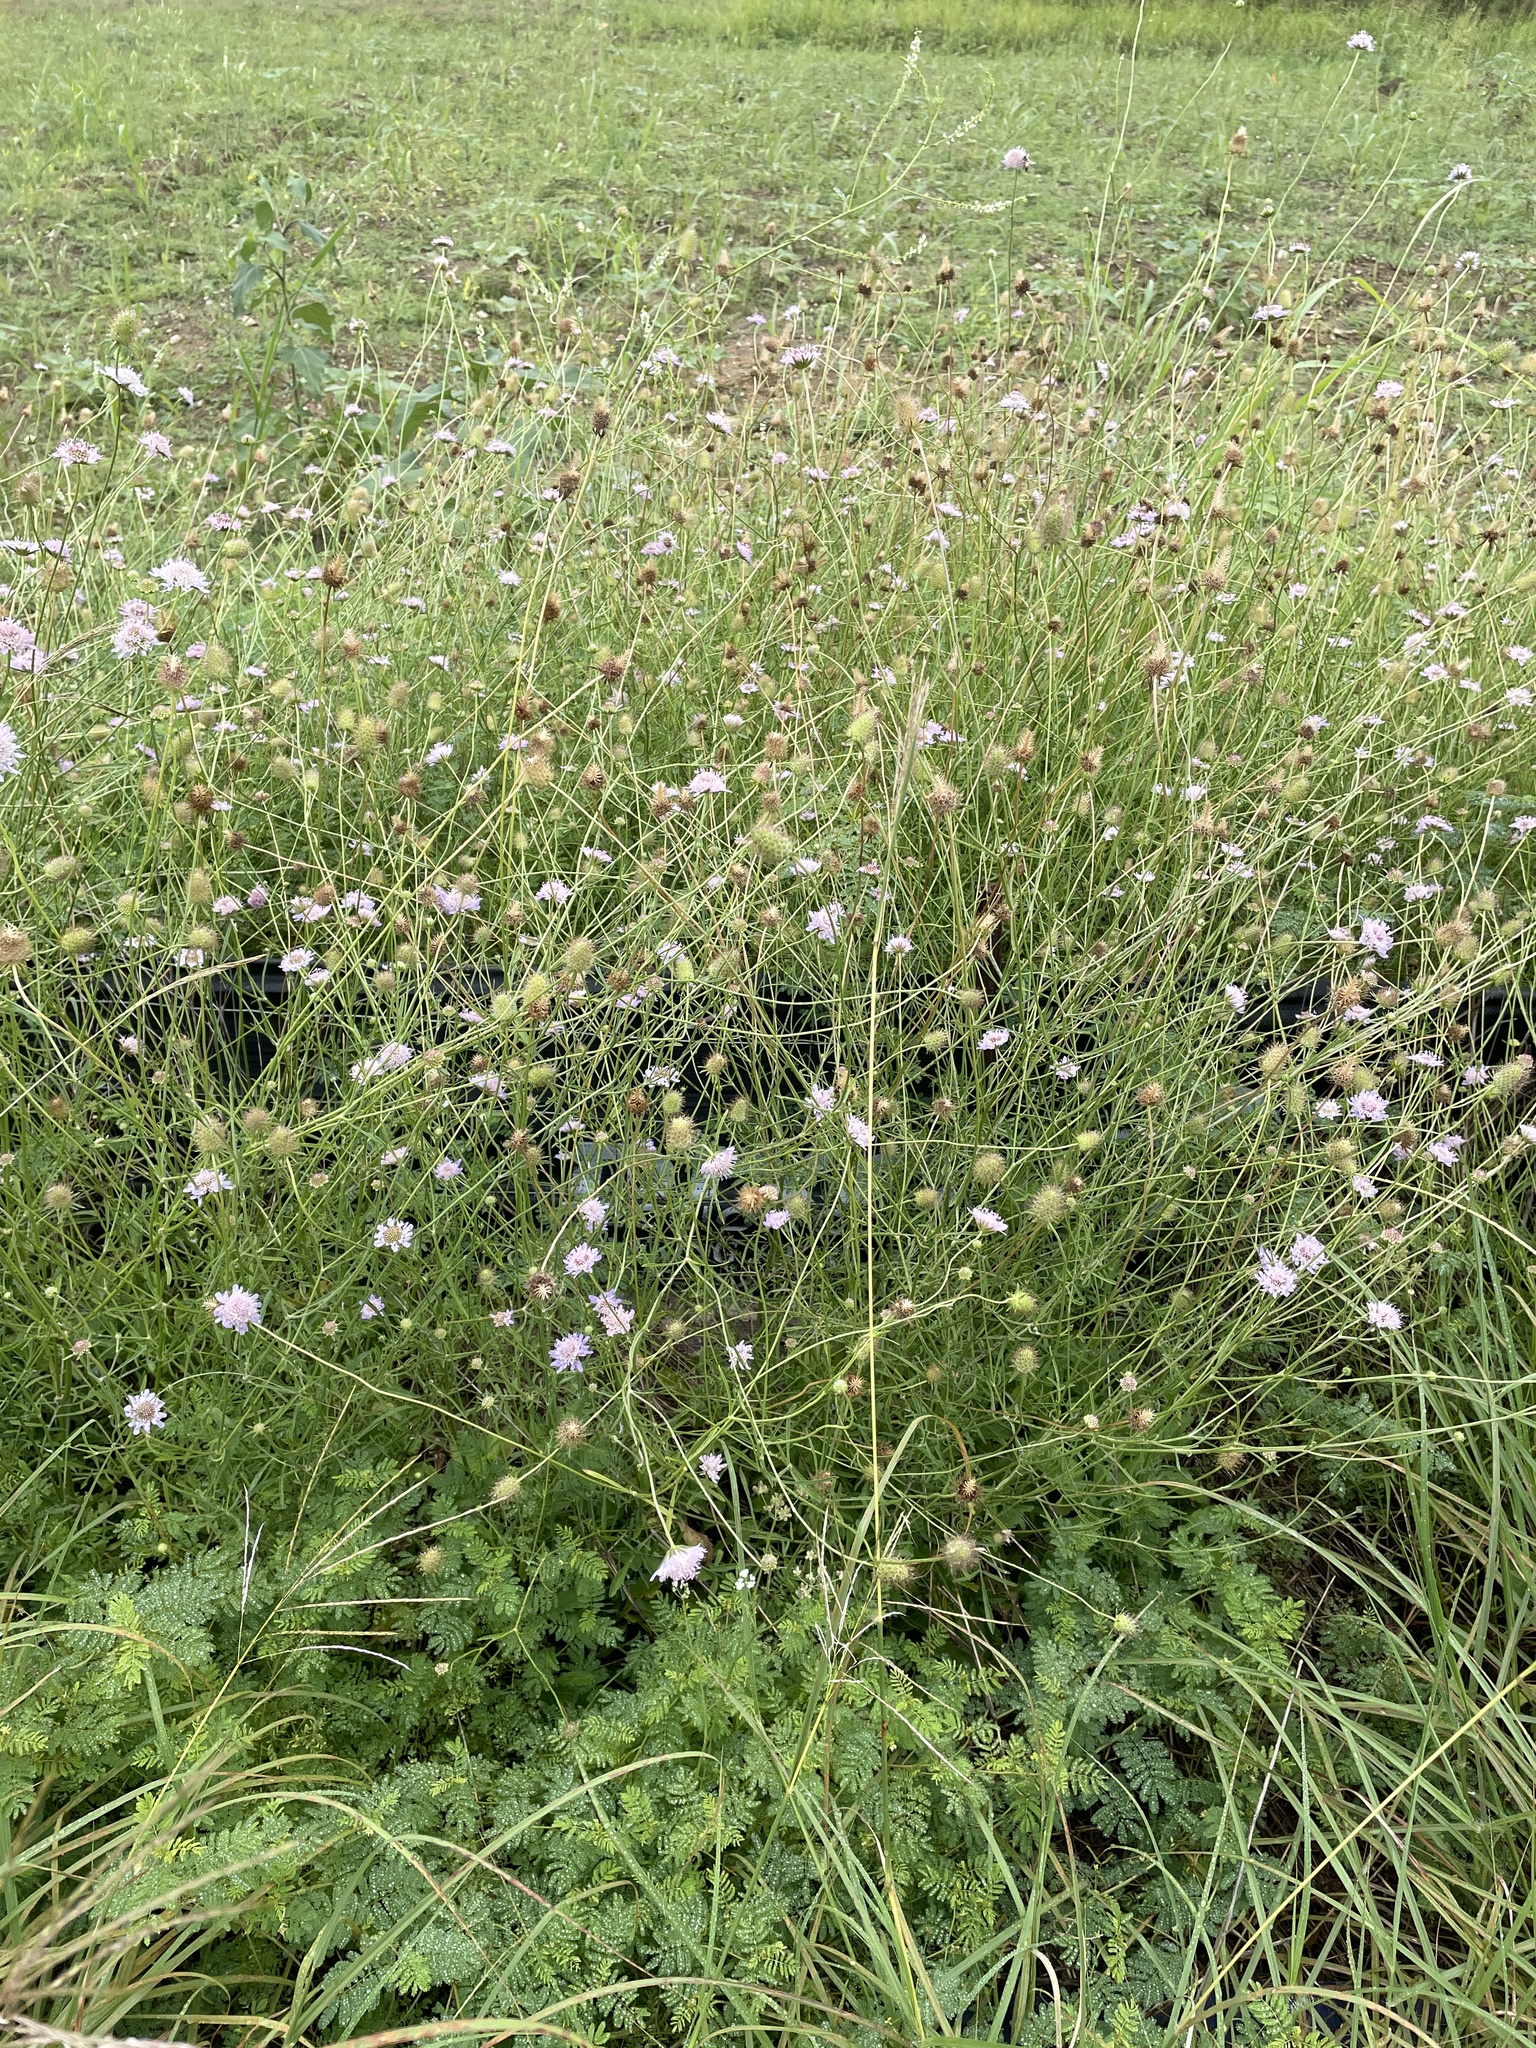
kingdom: Plantae
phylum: Tracheophyta
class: Magnoliopsida
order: Dipsacales
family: Caprifoliaceae
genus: Sixalix
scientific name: Sixalix atropurpurea
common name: Sweet scabious
